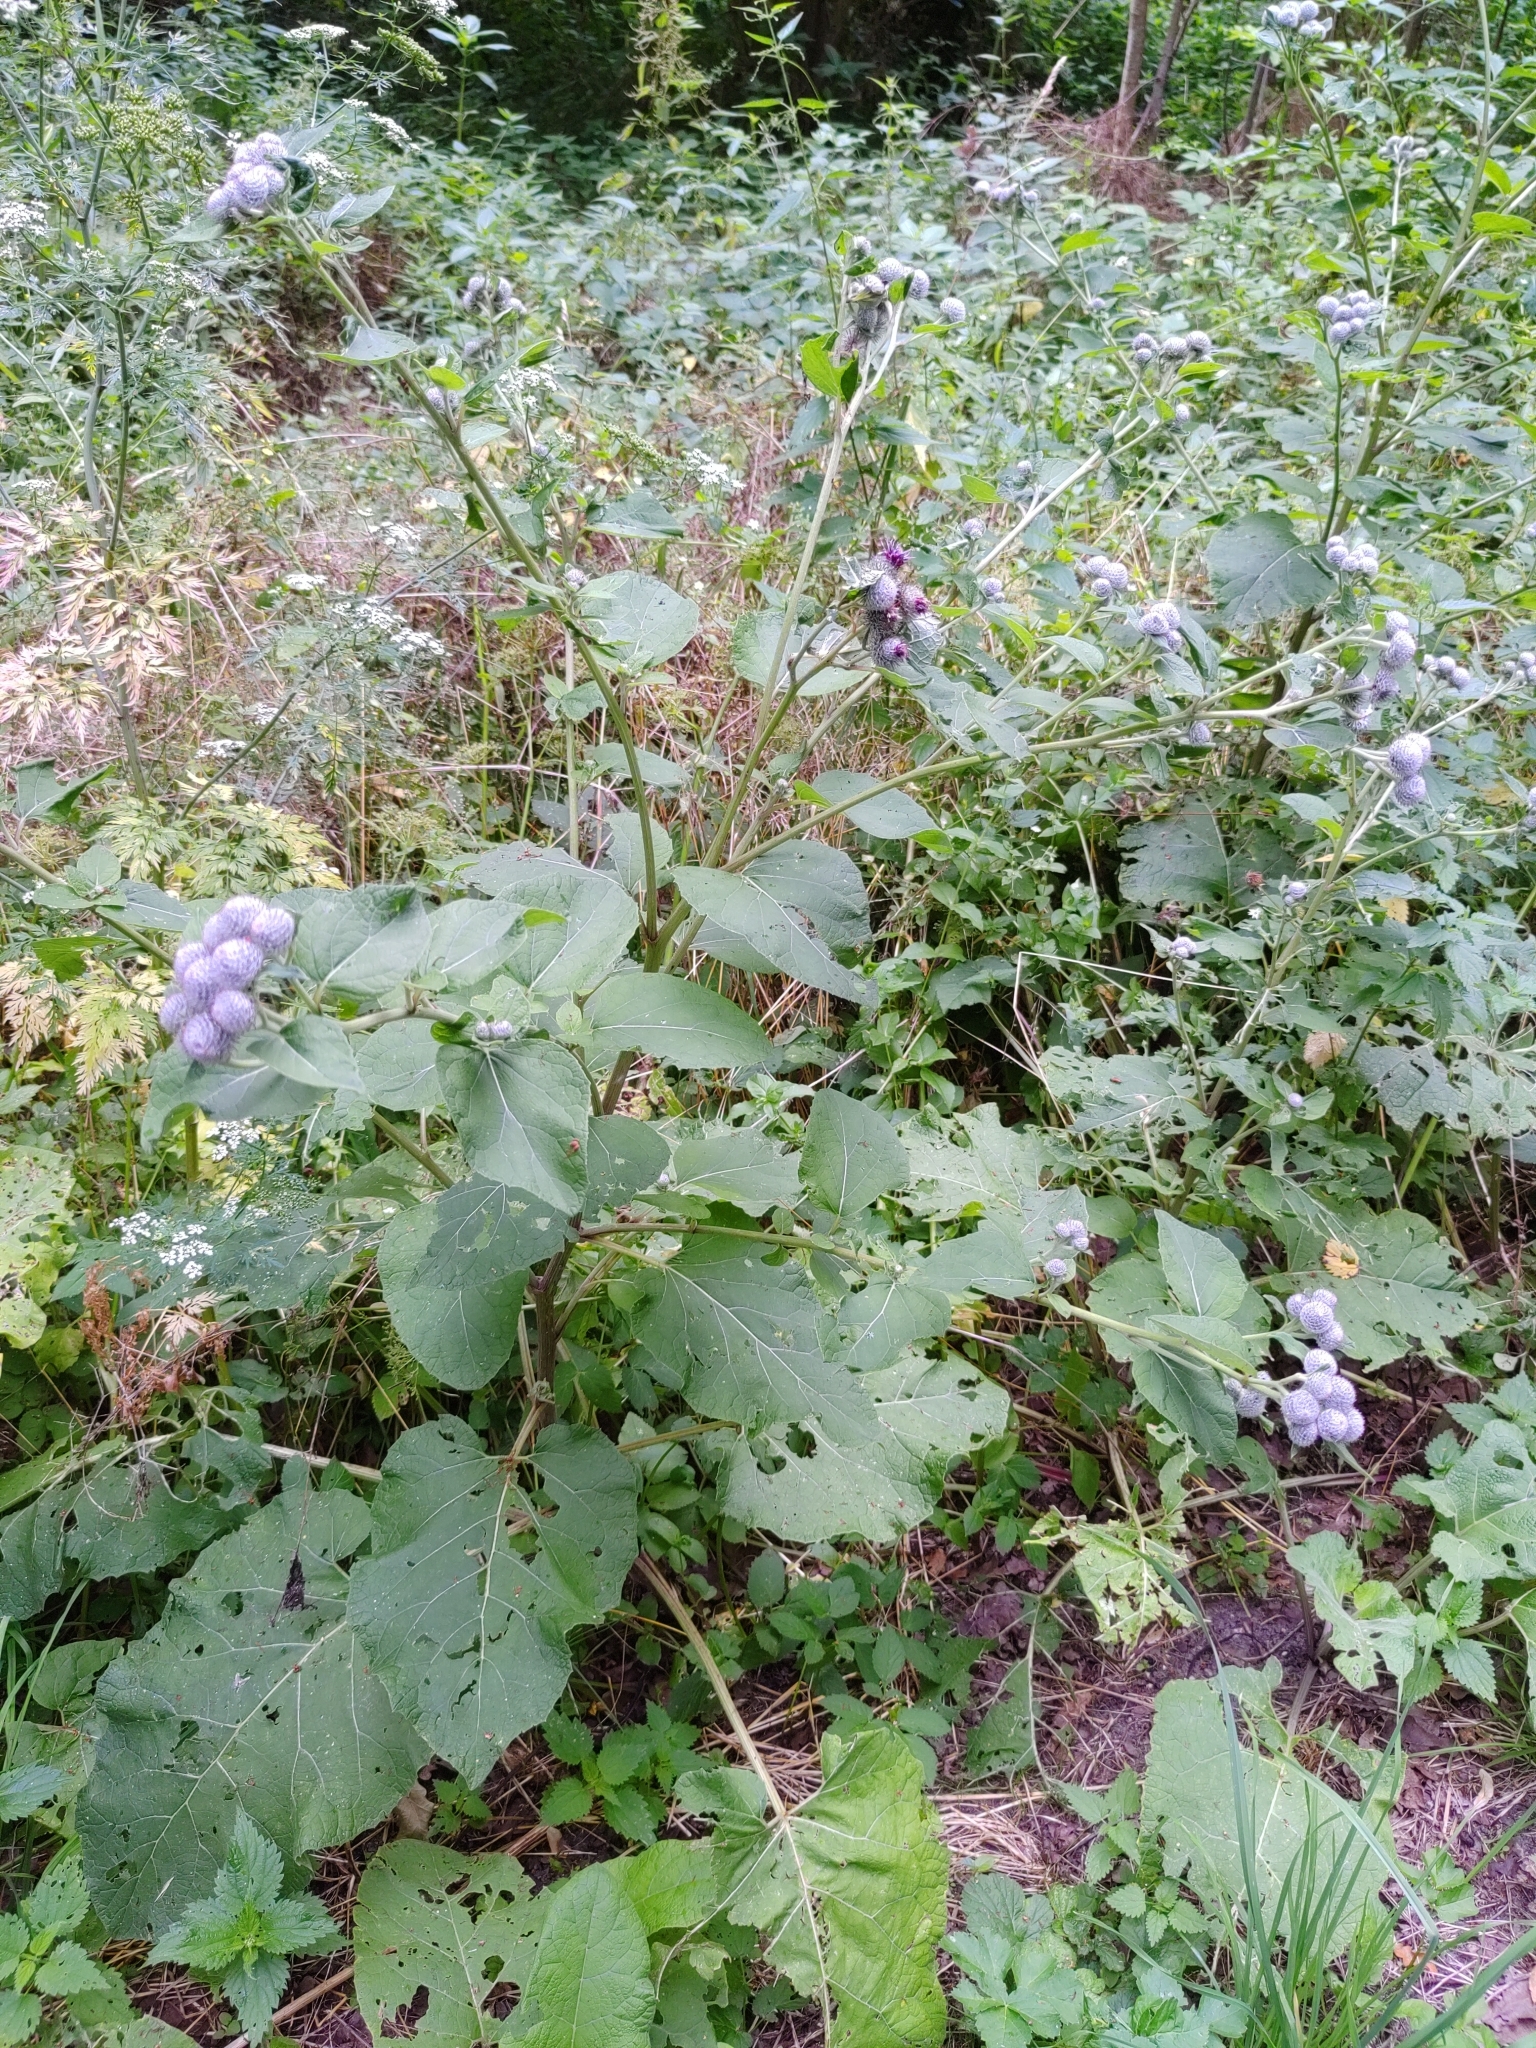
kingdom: Plantae
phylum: Tracheophyta
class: Magnoliopsida
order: Asterales
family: Asteraceae
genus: Arctium
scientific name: Arctium tomentosum
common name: Woolly burdock
